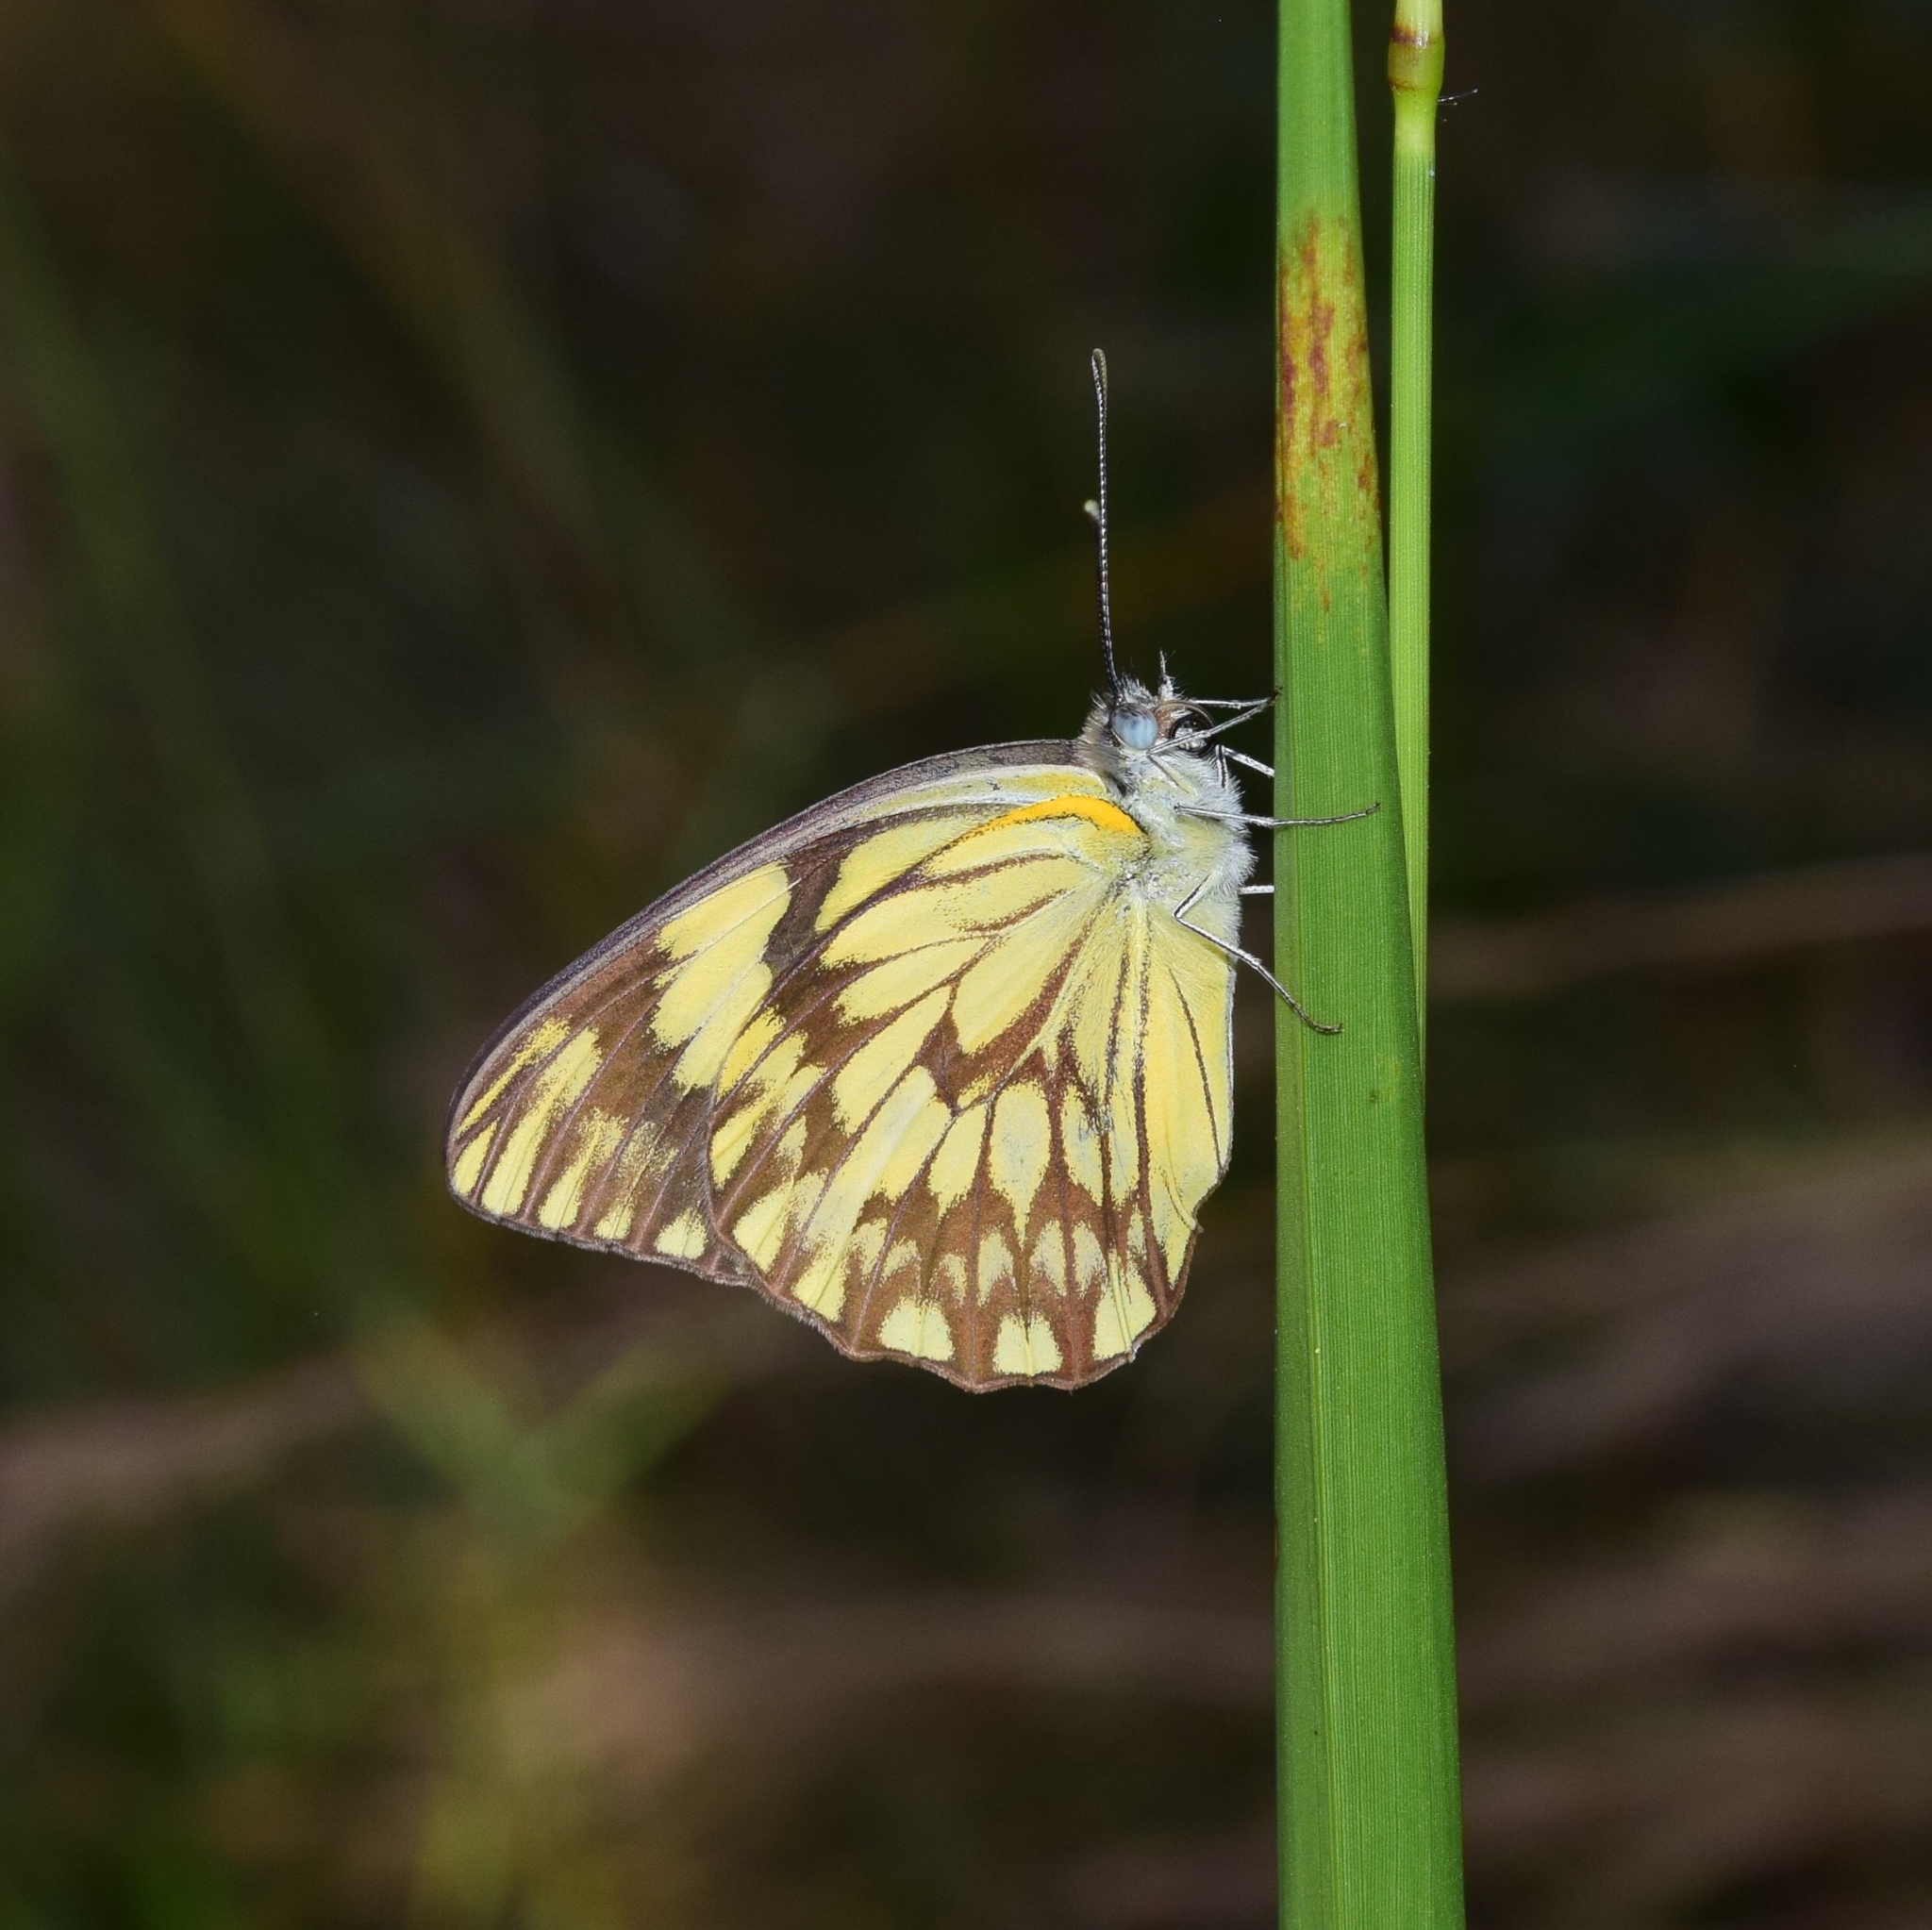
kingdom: Animalia
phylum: Arthropoda
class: Insecta
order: Lepidoptera
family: Pieridae
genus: Belenois
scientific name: Belenois gidica
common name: Pointed caper white
